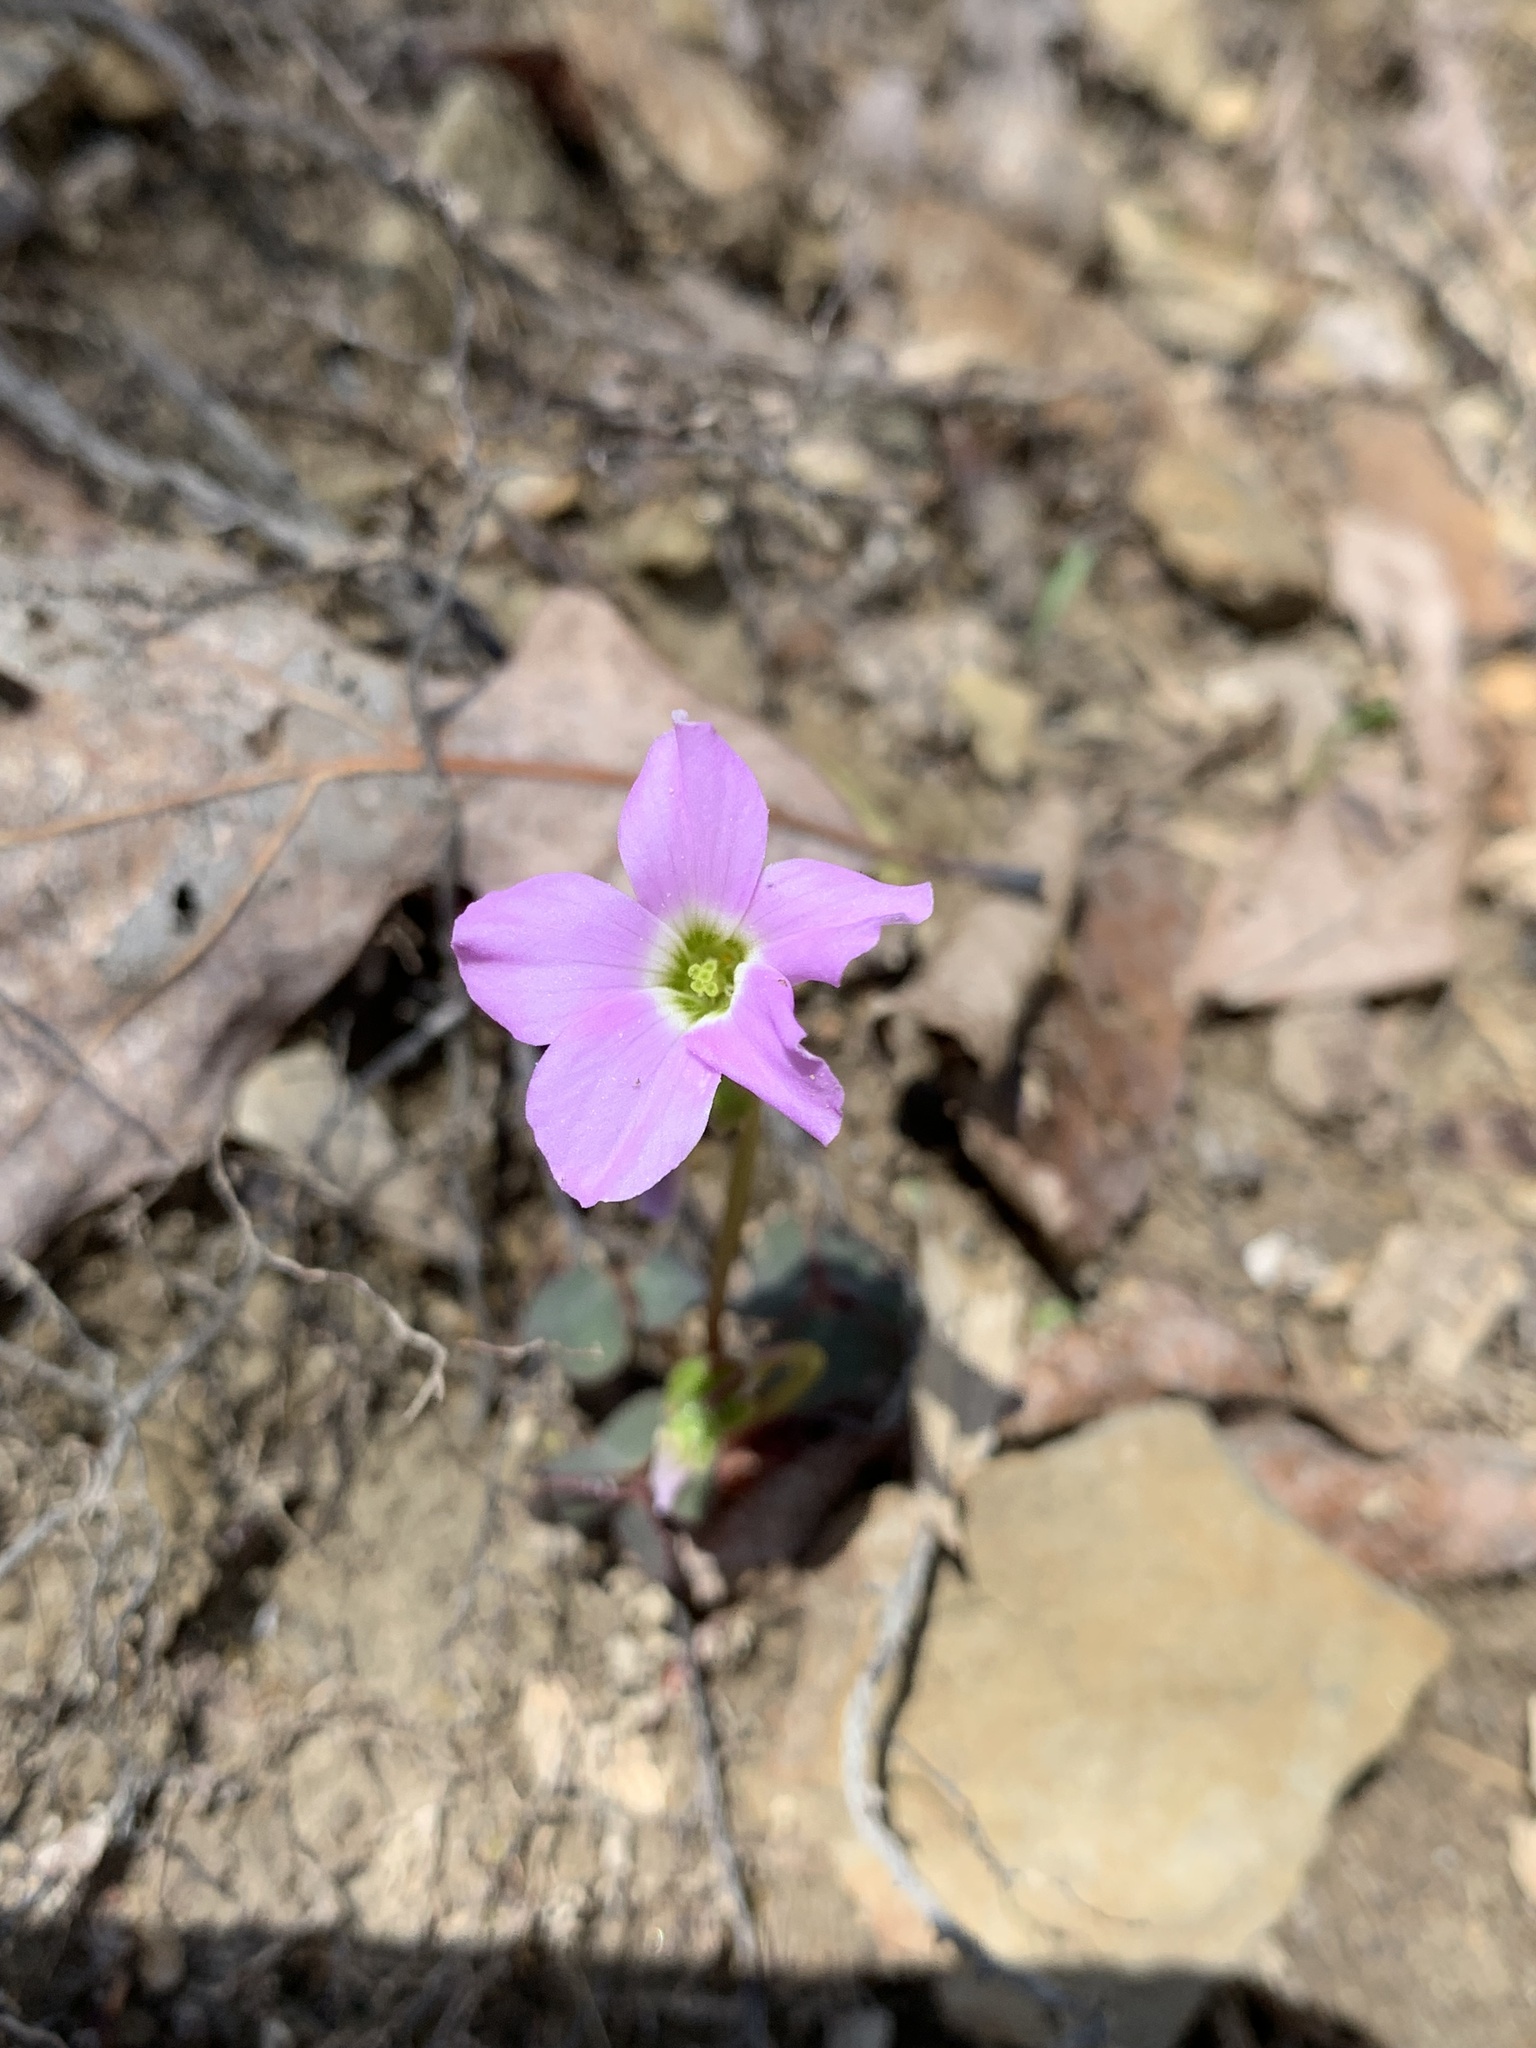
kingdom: Plantae
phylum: Tracheophyta
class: Magnoliopsida
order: Oxalidales
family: Oxalidaceae
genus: Oxalis
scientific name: Oxalis violacea
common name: Violet wood-sorrel
